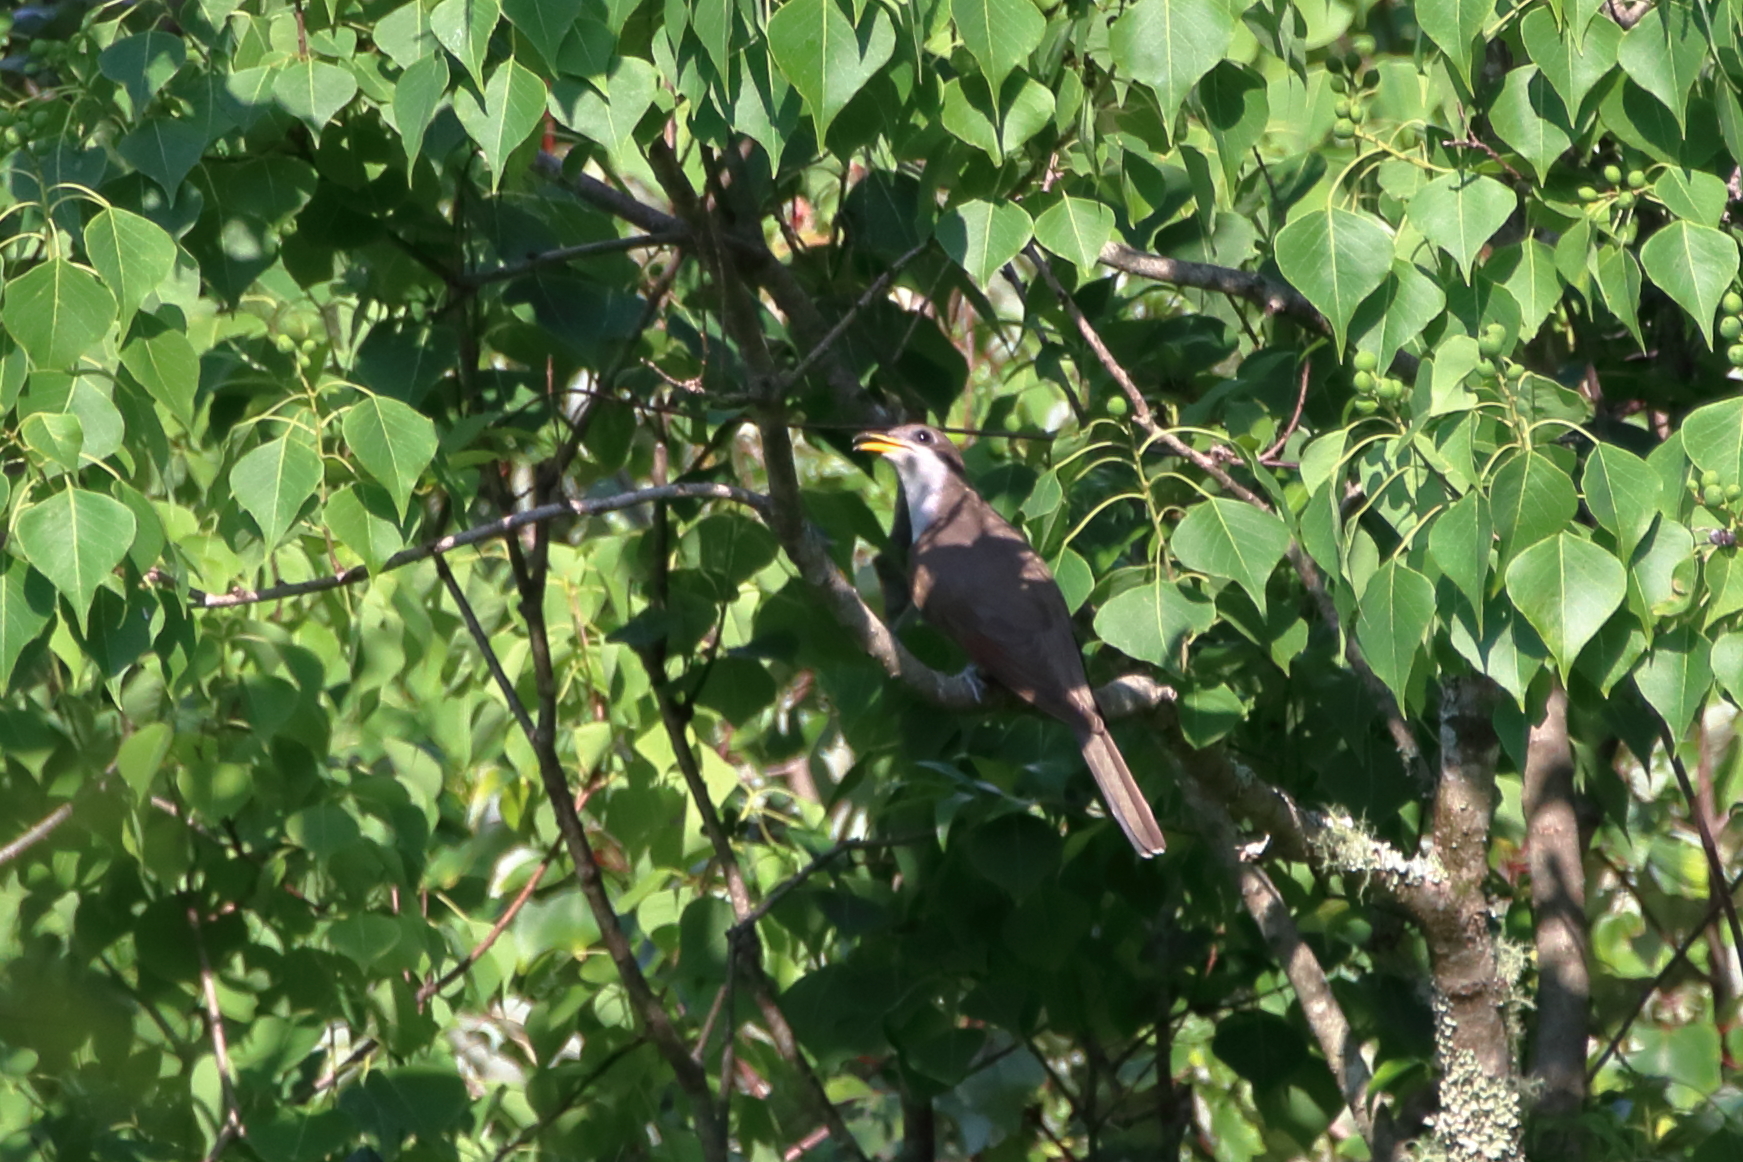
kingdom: Animalia
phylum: Chordata
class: Aves
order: Cuculiformes
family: Cuculidae
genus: Coccyzus
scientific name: Coccyzus americanus
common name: Yellow-billed cuckoo
